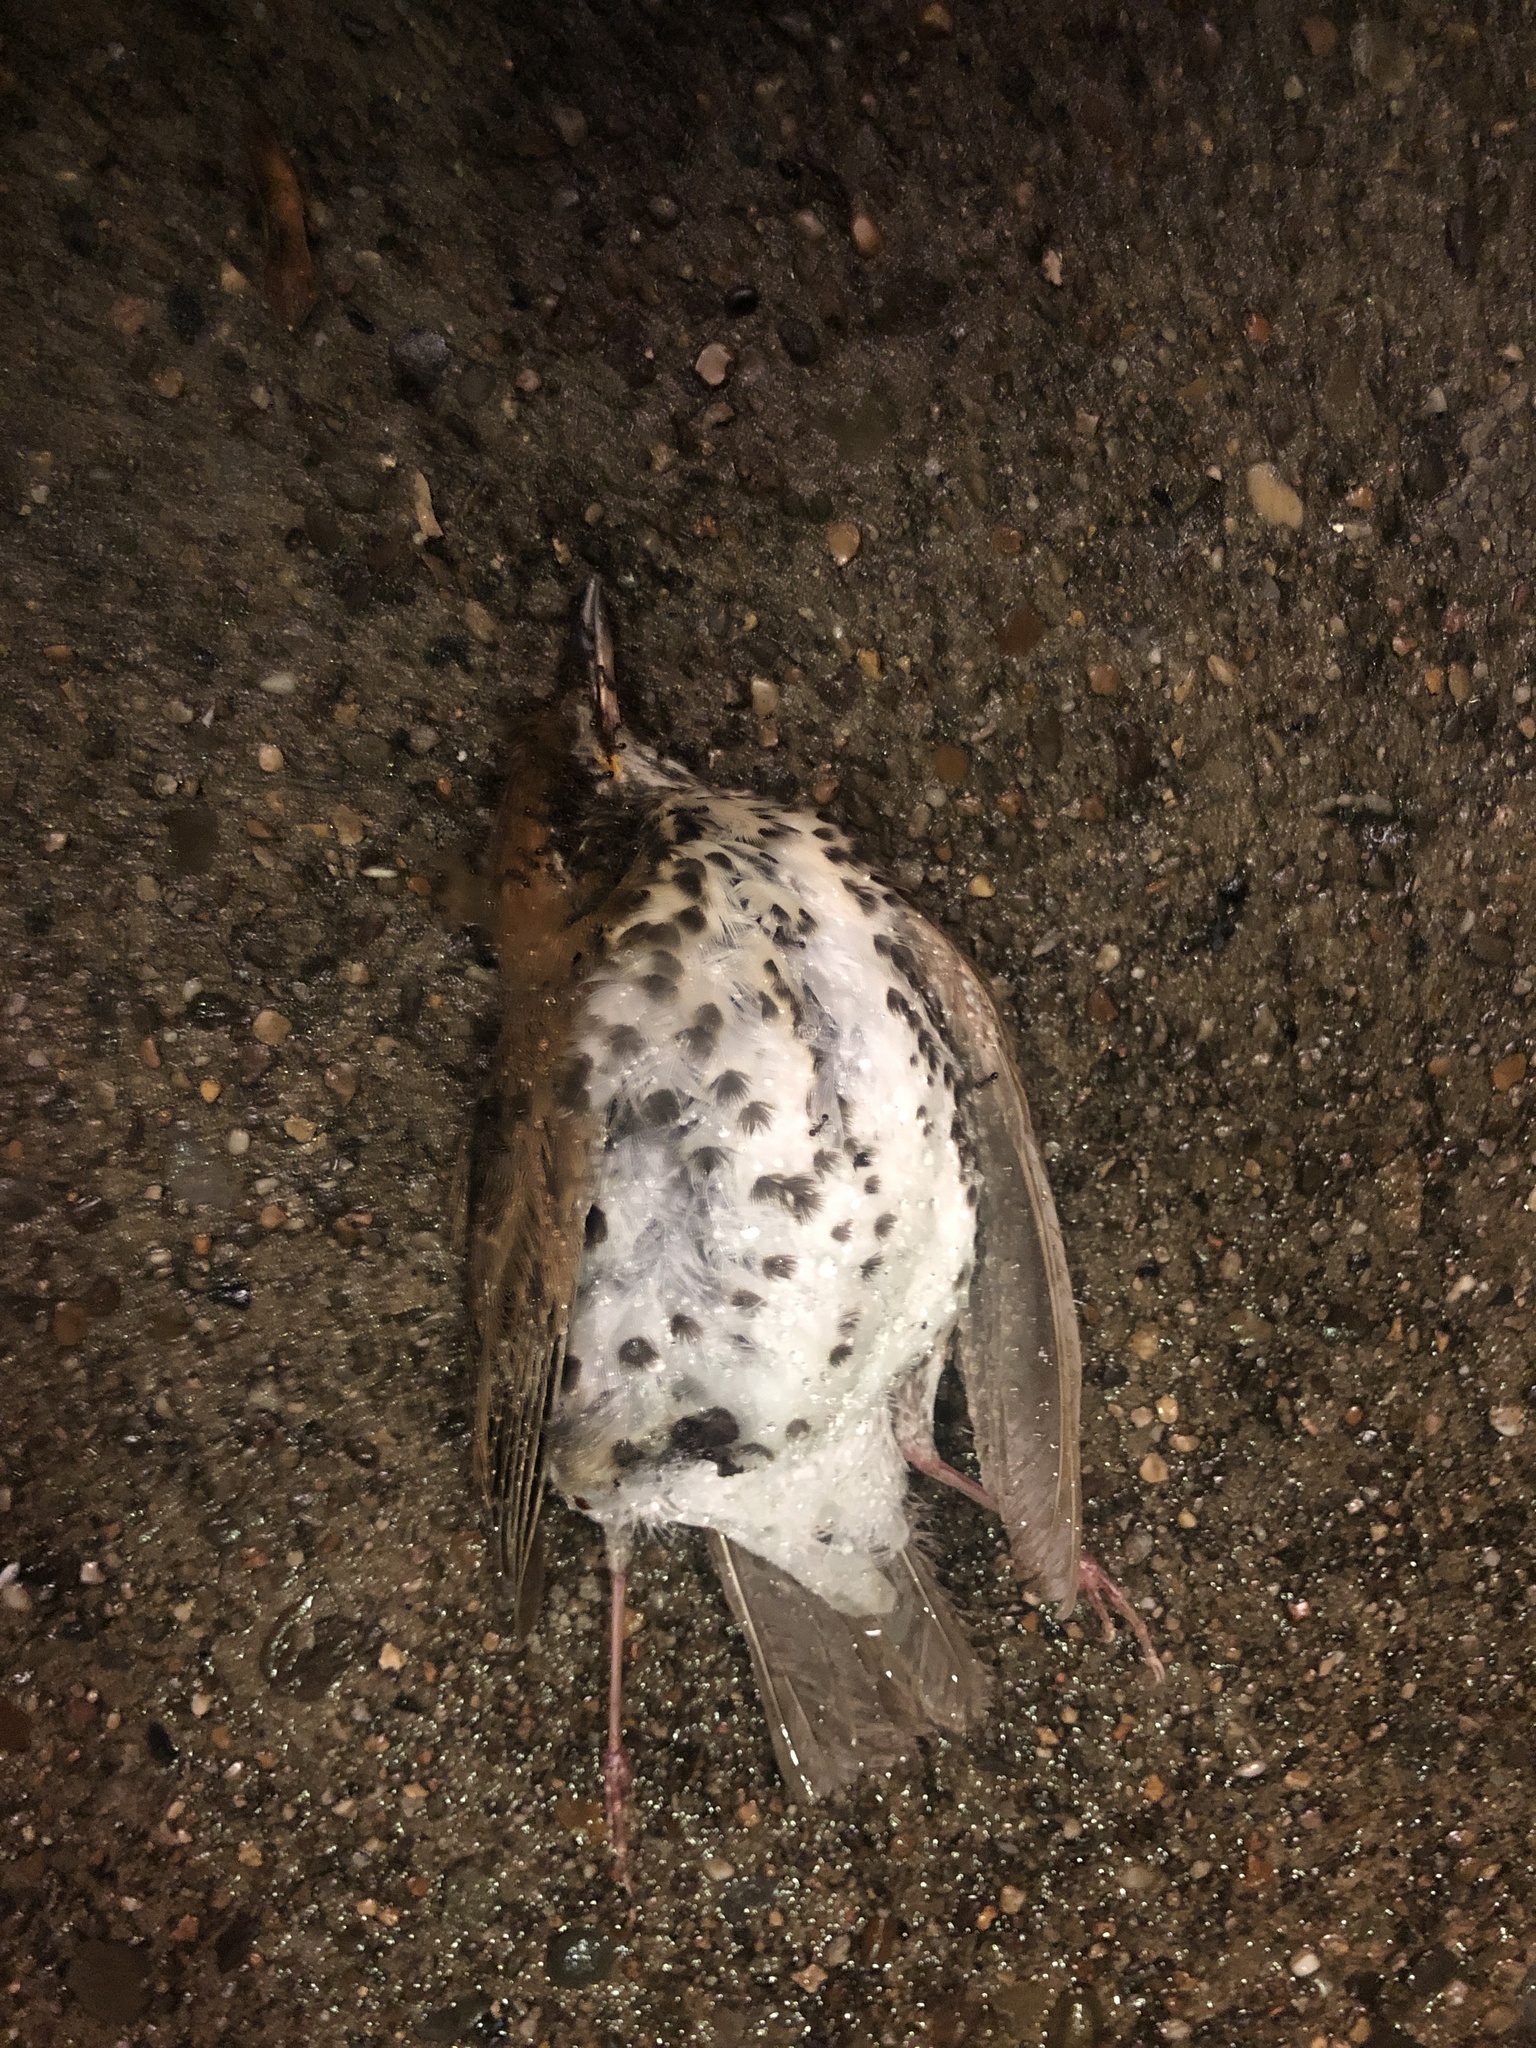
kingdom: Animalia
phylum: Chordata
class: Aves
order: Passeriformes
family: Turdidae
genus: Hylocichla
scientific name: Hylocichla mustelina
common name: Wood thrush
